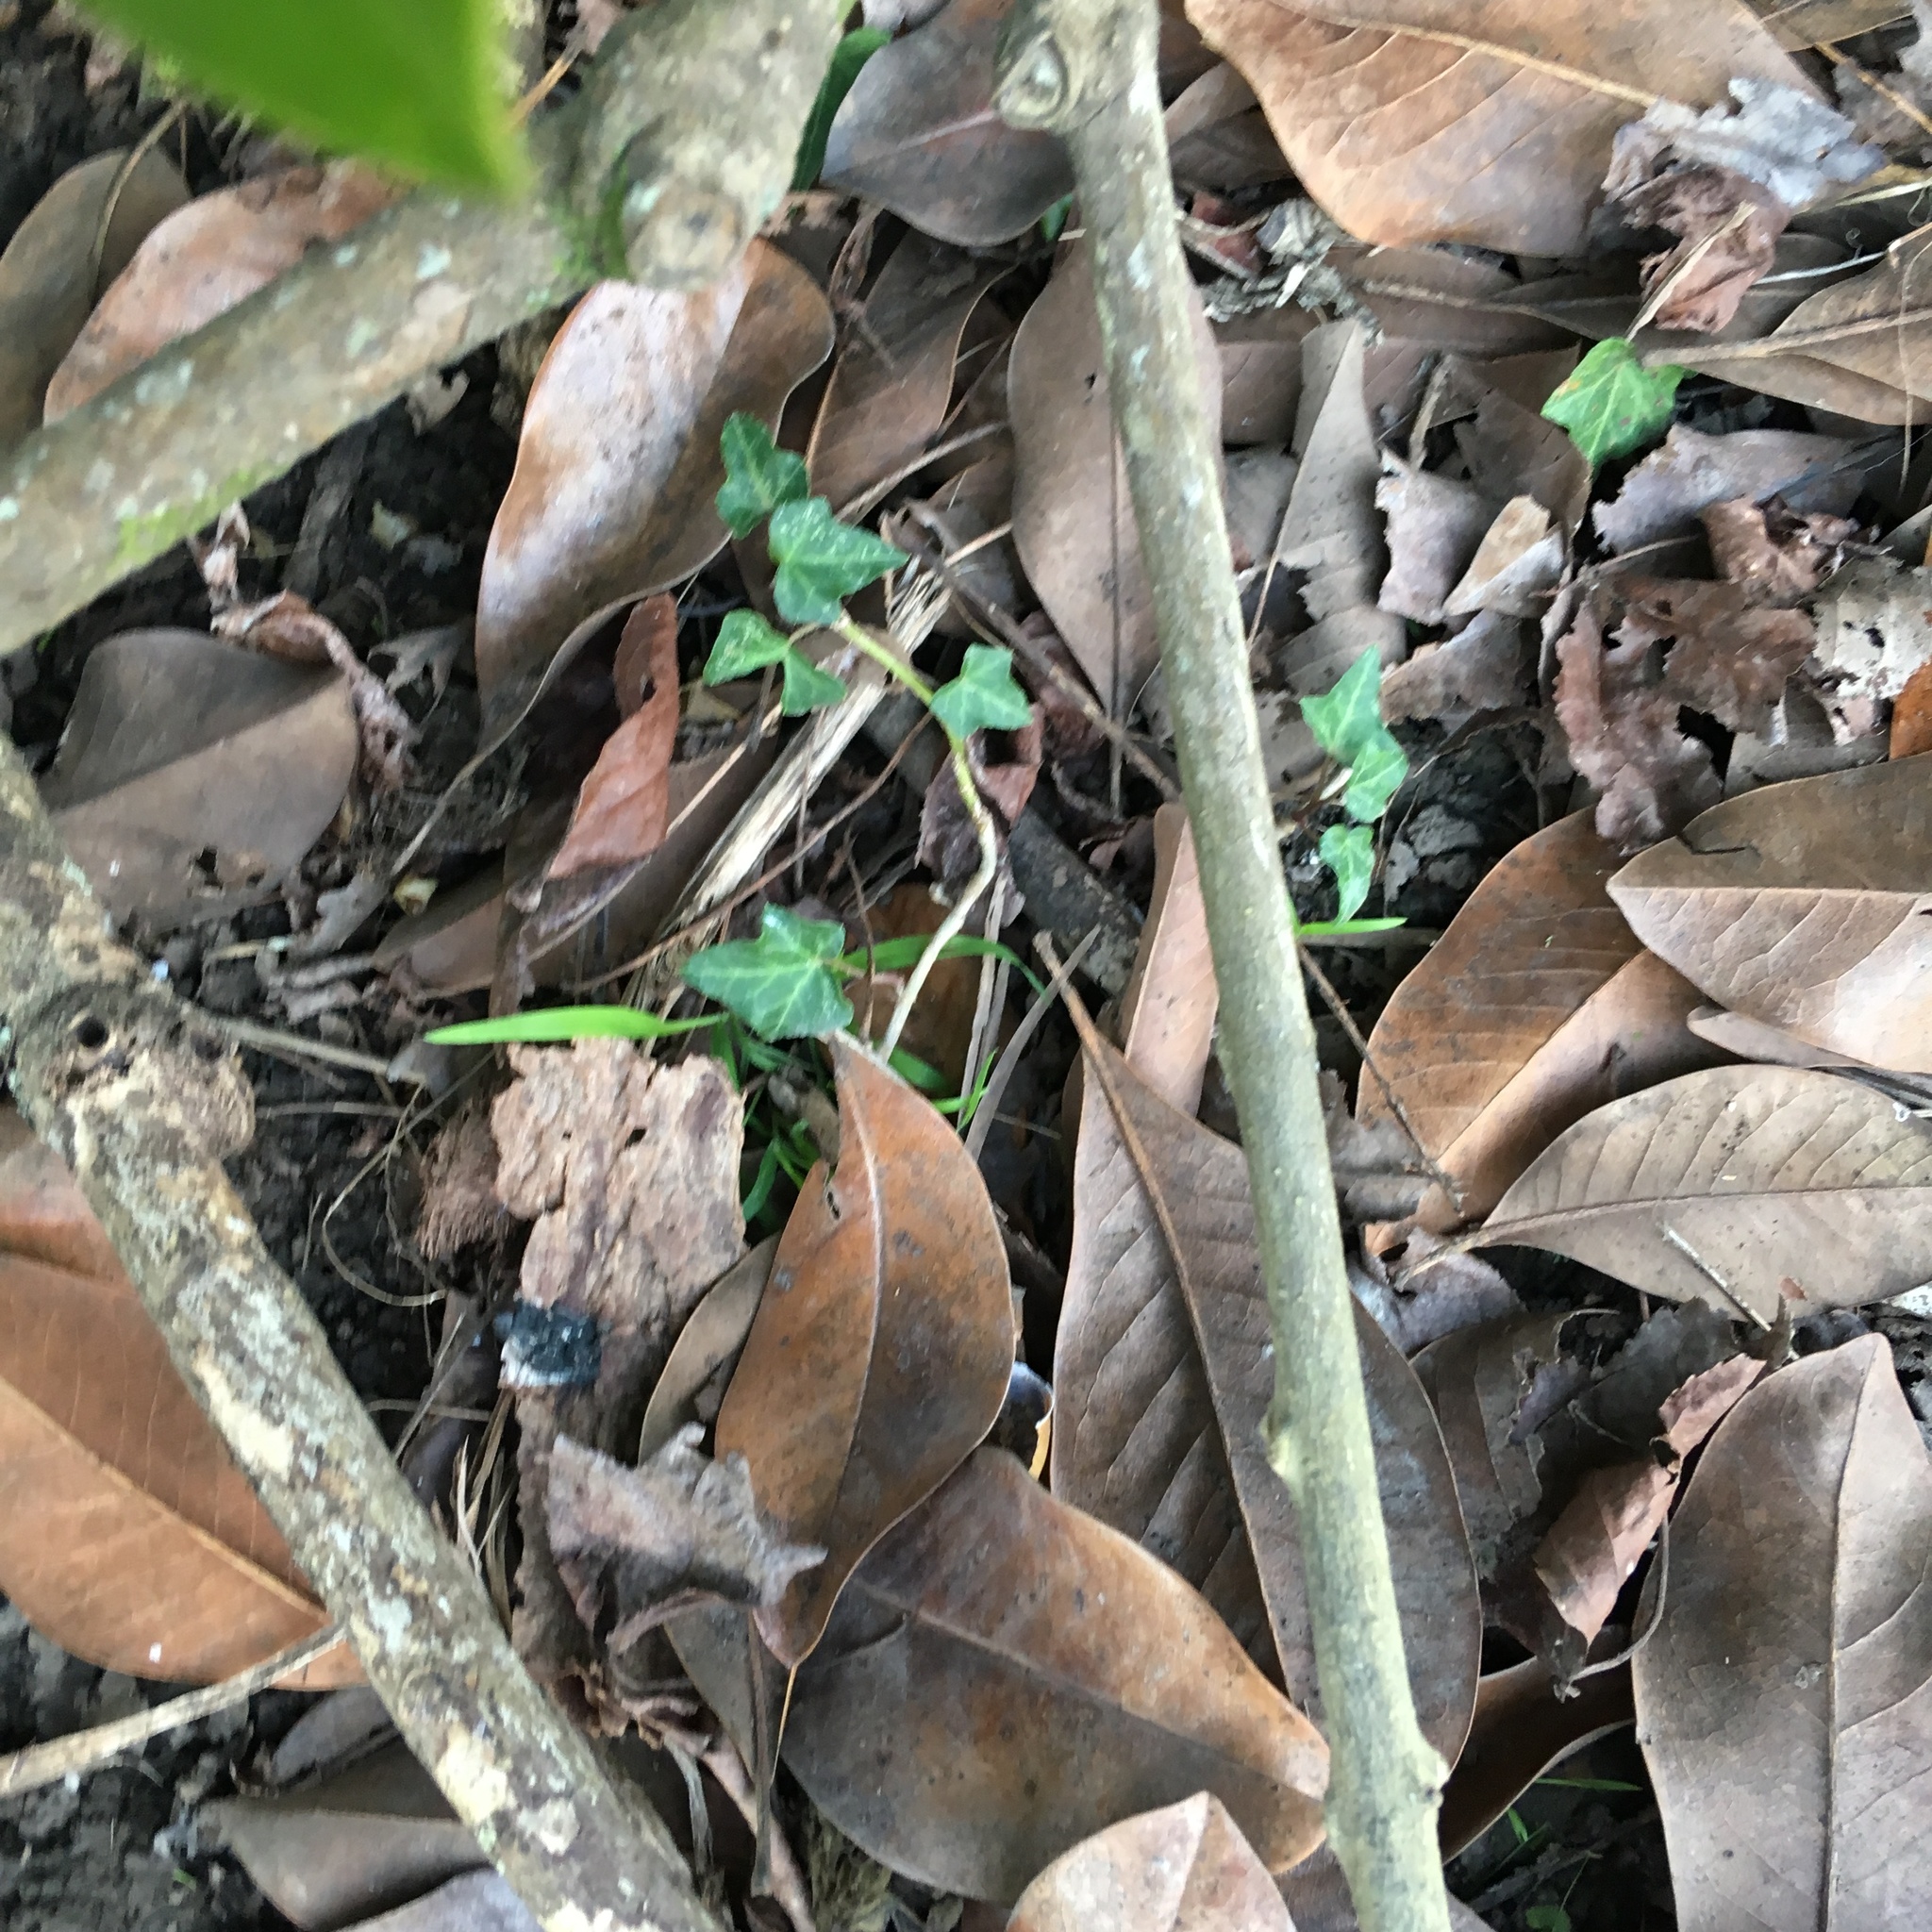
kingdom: Plantae
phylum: Tracheophyta
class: Magnoliopsida
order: Apiales
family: Araliaceae
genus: Hedera
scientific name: Hedera helix
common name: Ivy
